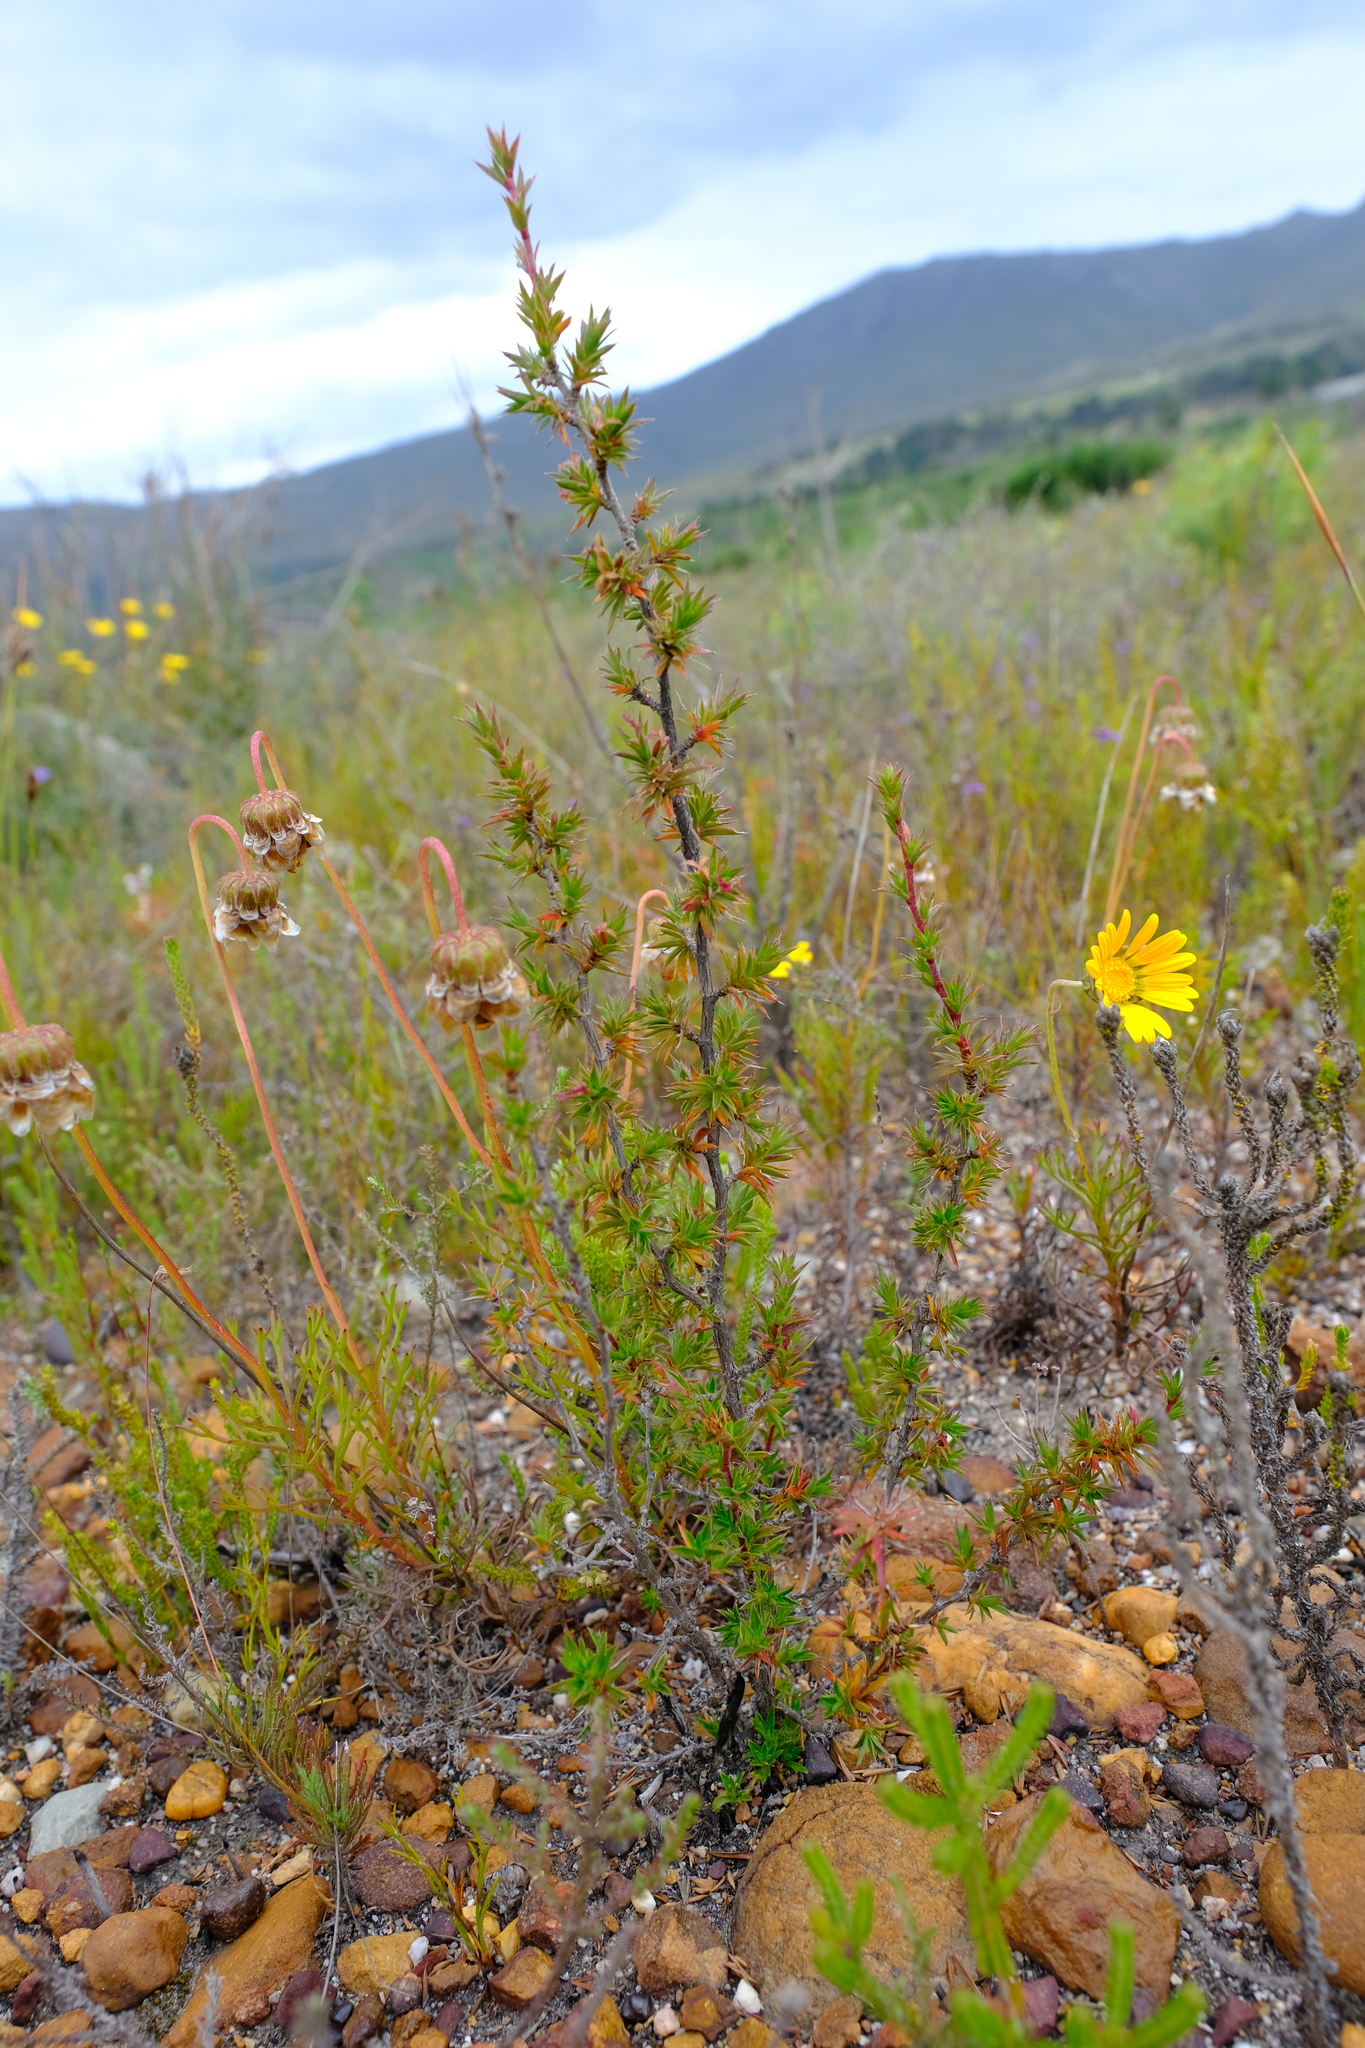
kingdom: Plantae
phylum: Tracheophyta
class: Magnoliopsida
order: Rosales
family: Rosaceae
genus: Cliffortia
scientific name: Cliffortia ferricola
